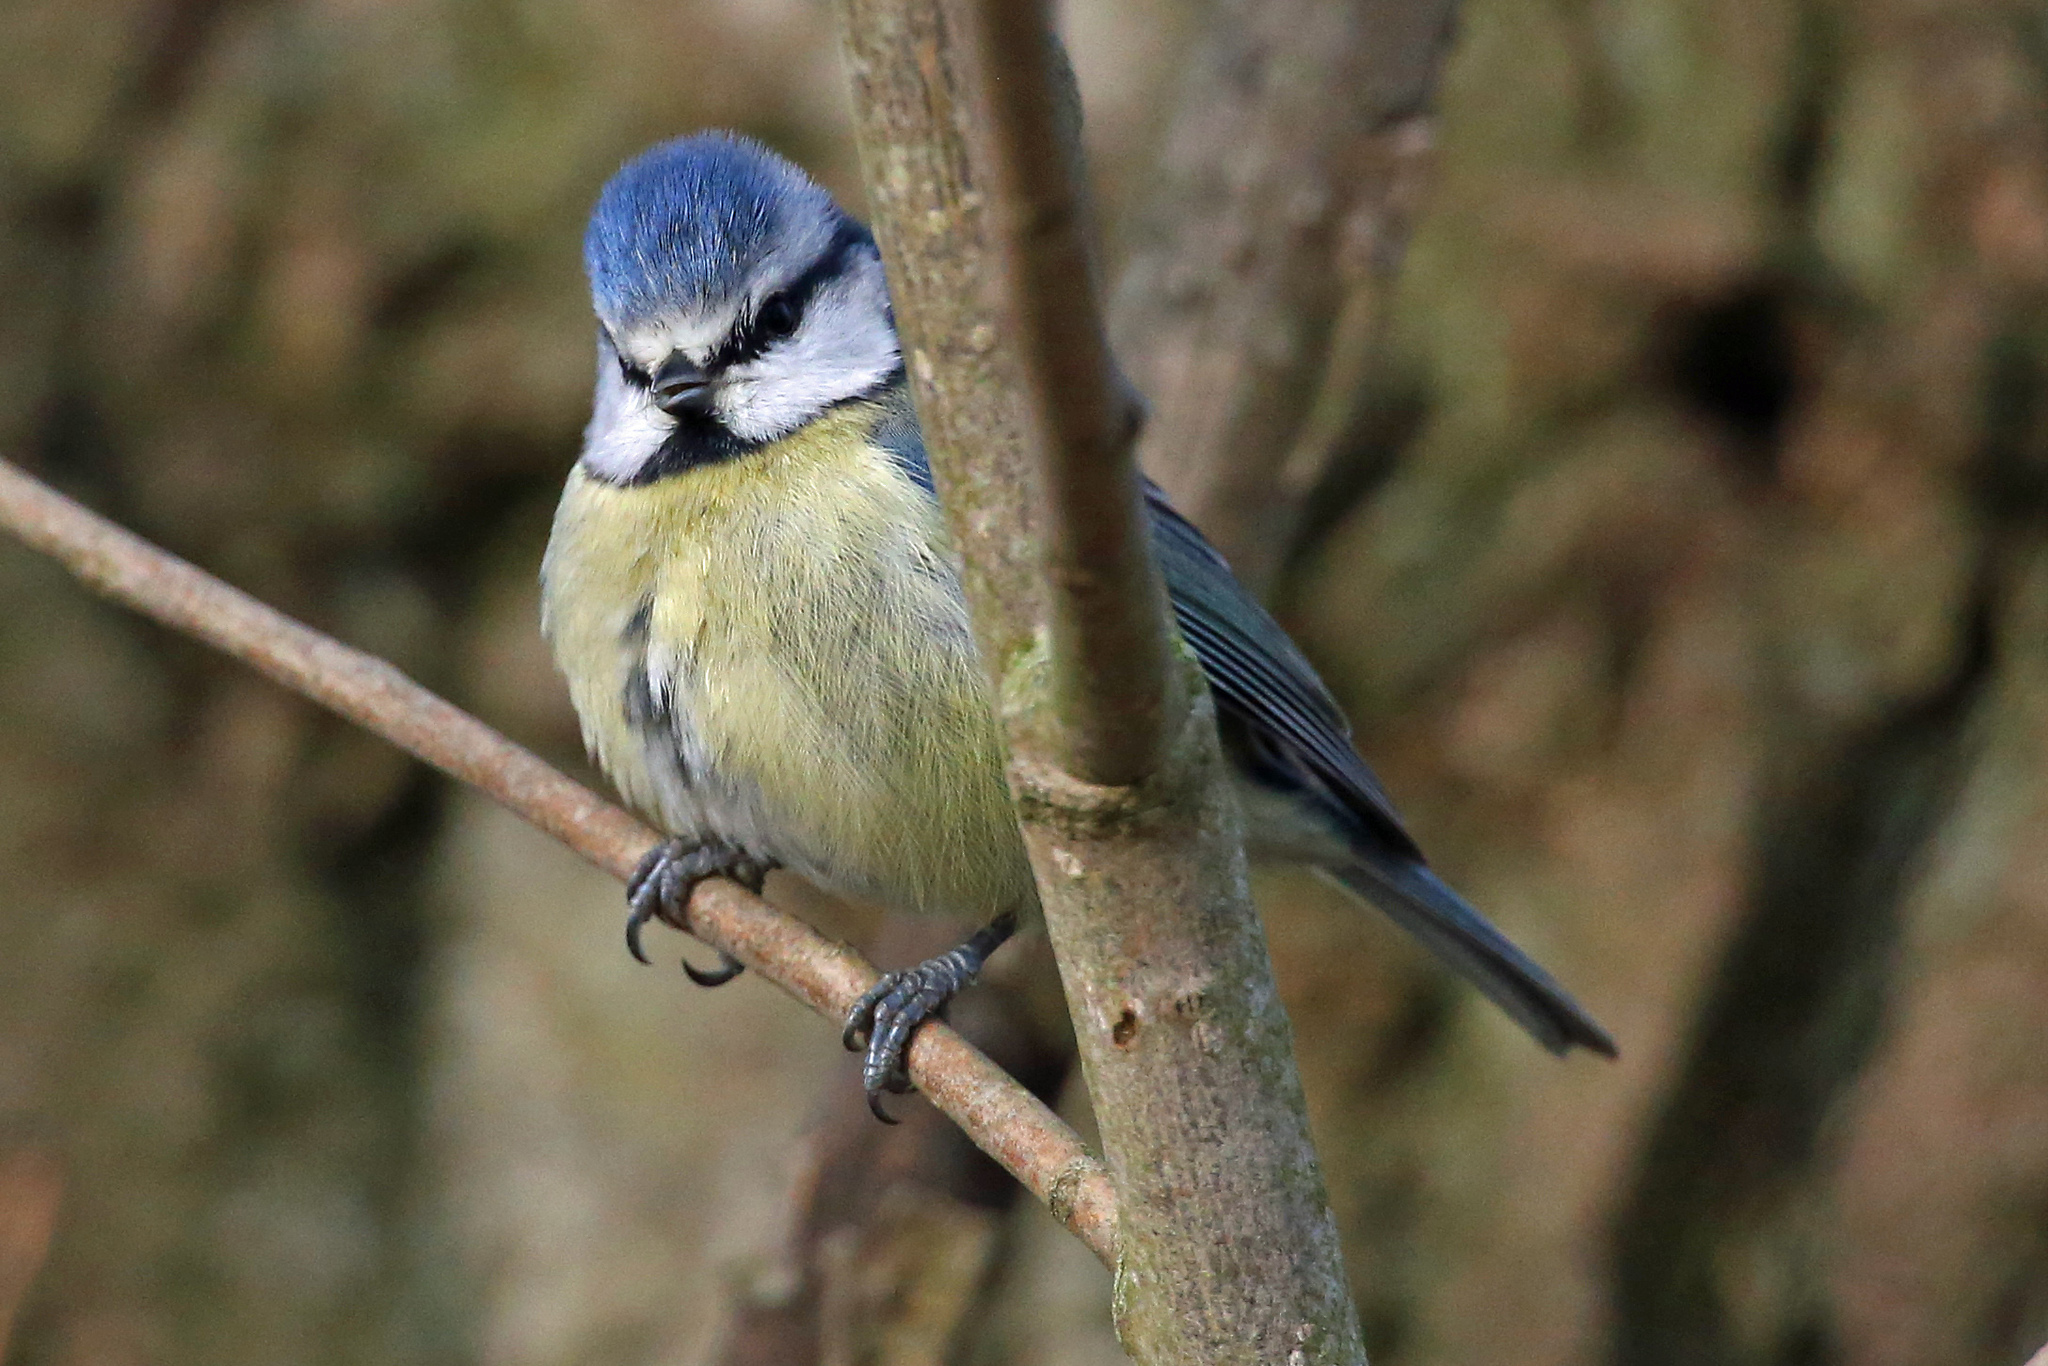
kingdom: Animalia
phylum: Chordata
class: Aves
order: Passeriformes
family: Paridae
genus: Cyanistes
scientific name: Cyanistes caeruleus
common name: Eurasian blue tit
